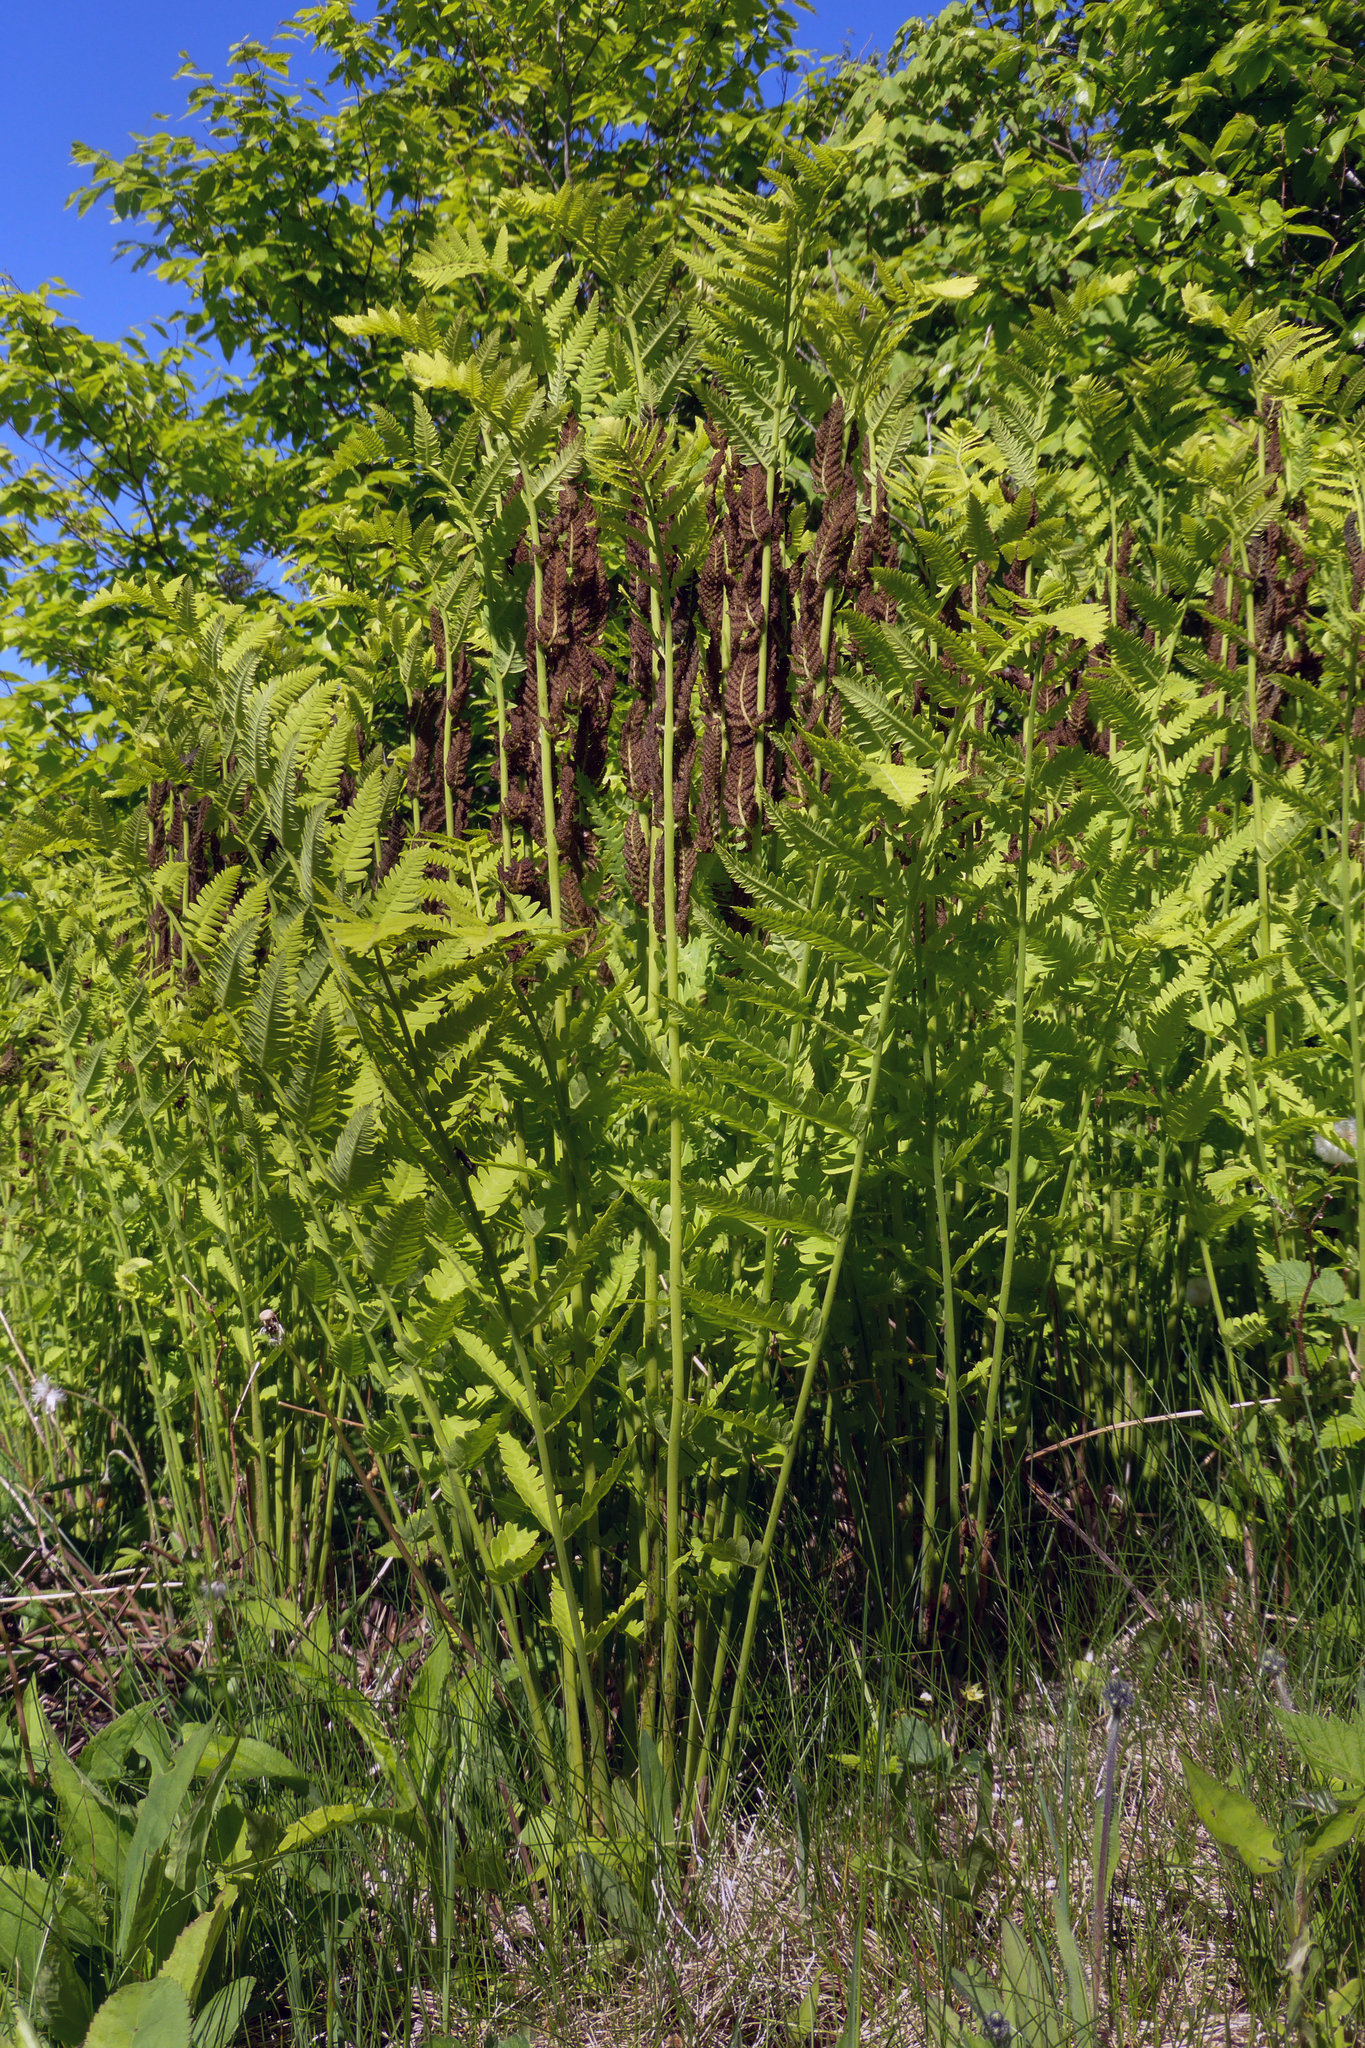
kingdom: Plantae
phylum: Tracheophyta
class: Polypodiopsida
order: Osmundales
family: Osmundaceae
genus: Claytosmunda
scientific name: Claytosmunda claytoniana
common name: Clayton's fern
